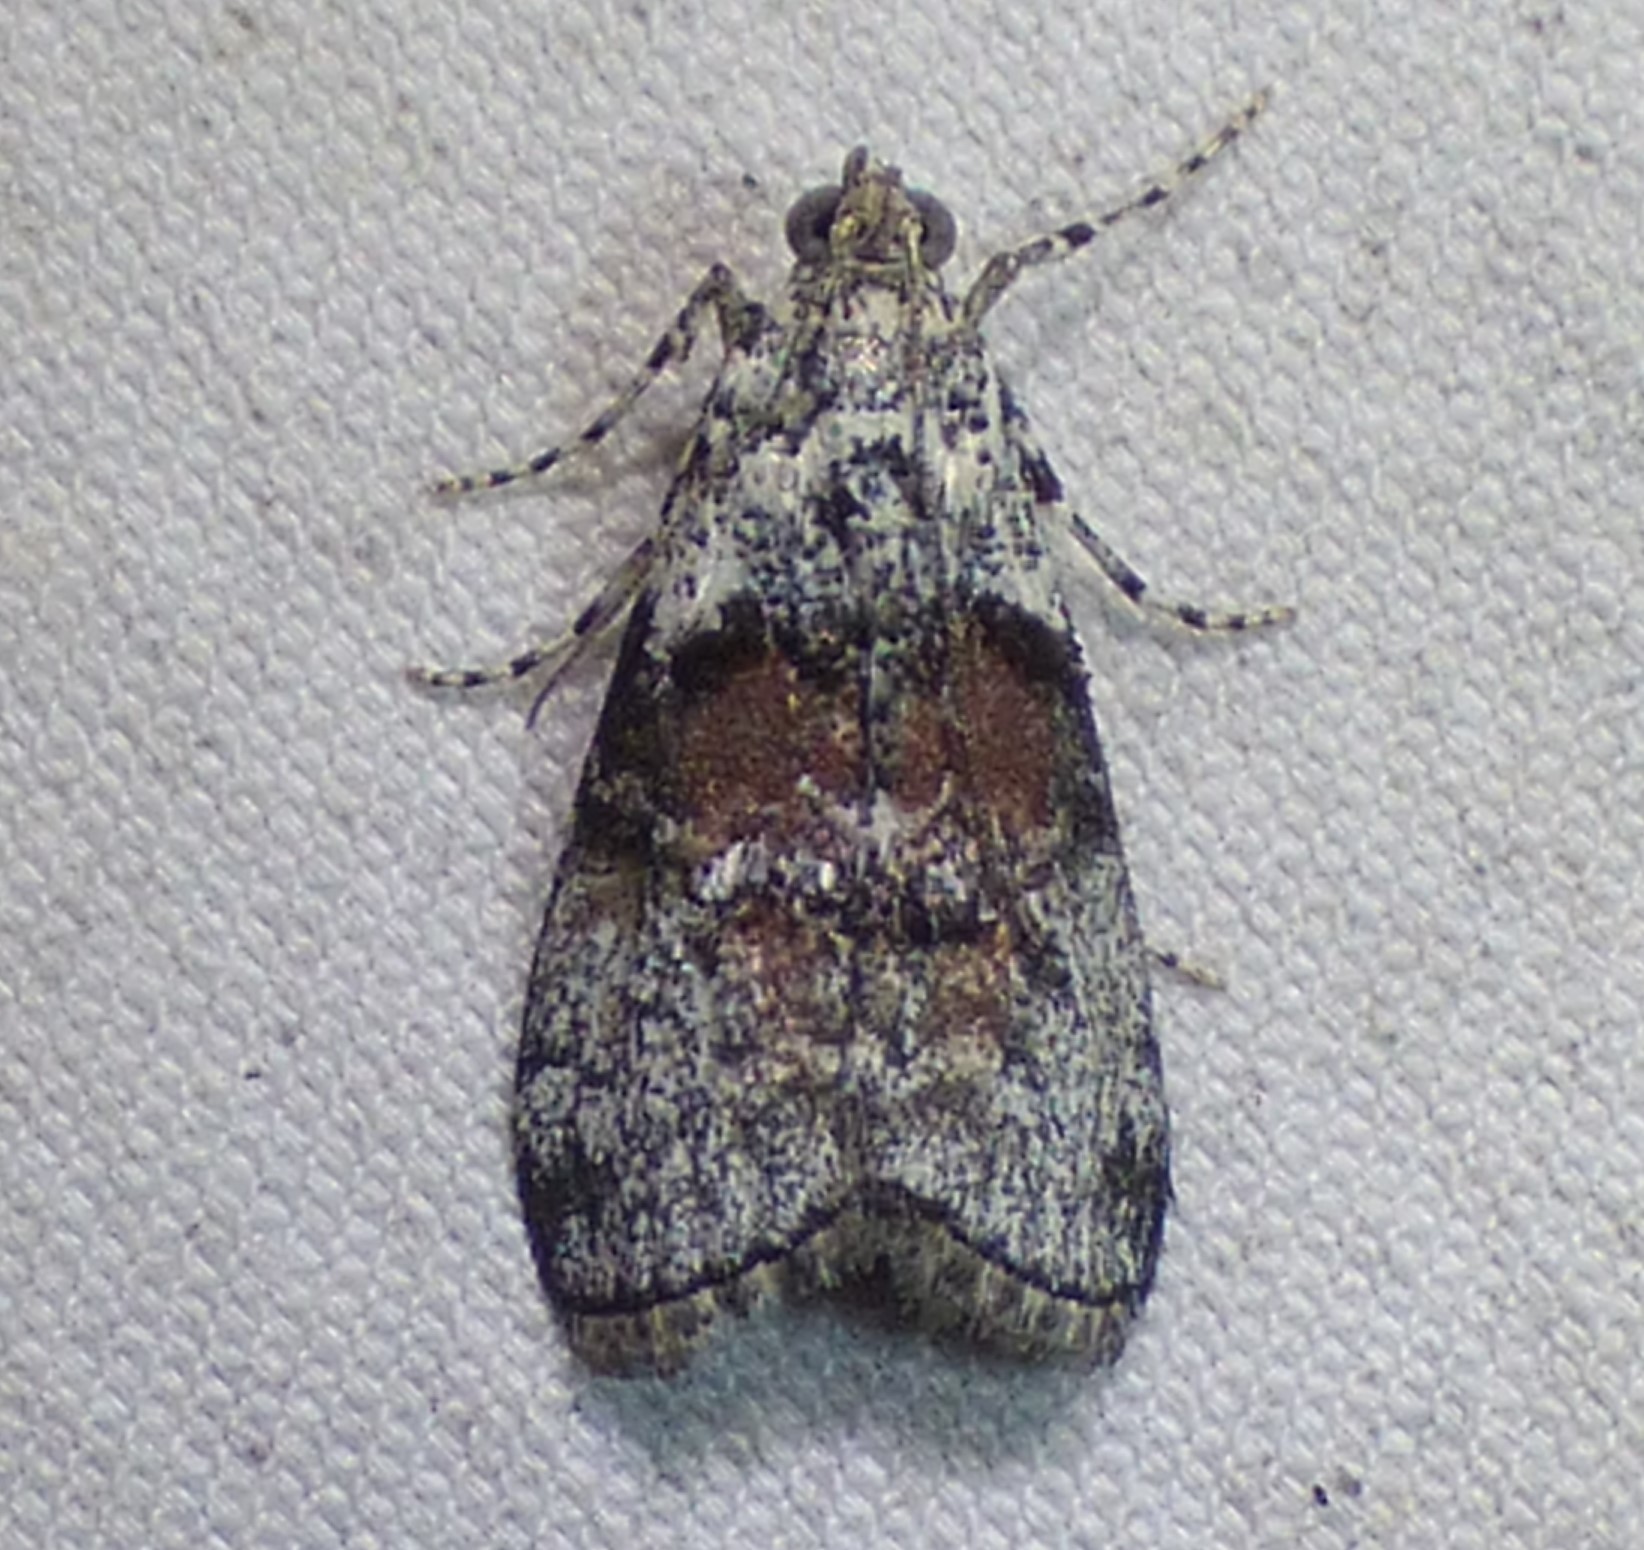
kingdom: Animalia
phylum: Arthropoda
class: Insecta
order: Lepidoptera
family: Pyralidae
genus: Pococera
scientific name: Pococera asperatella
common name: Maple webworm moth
